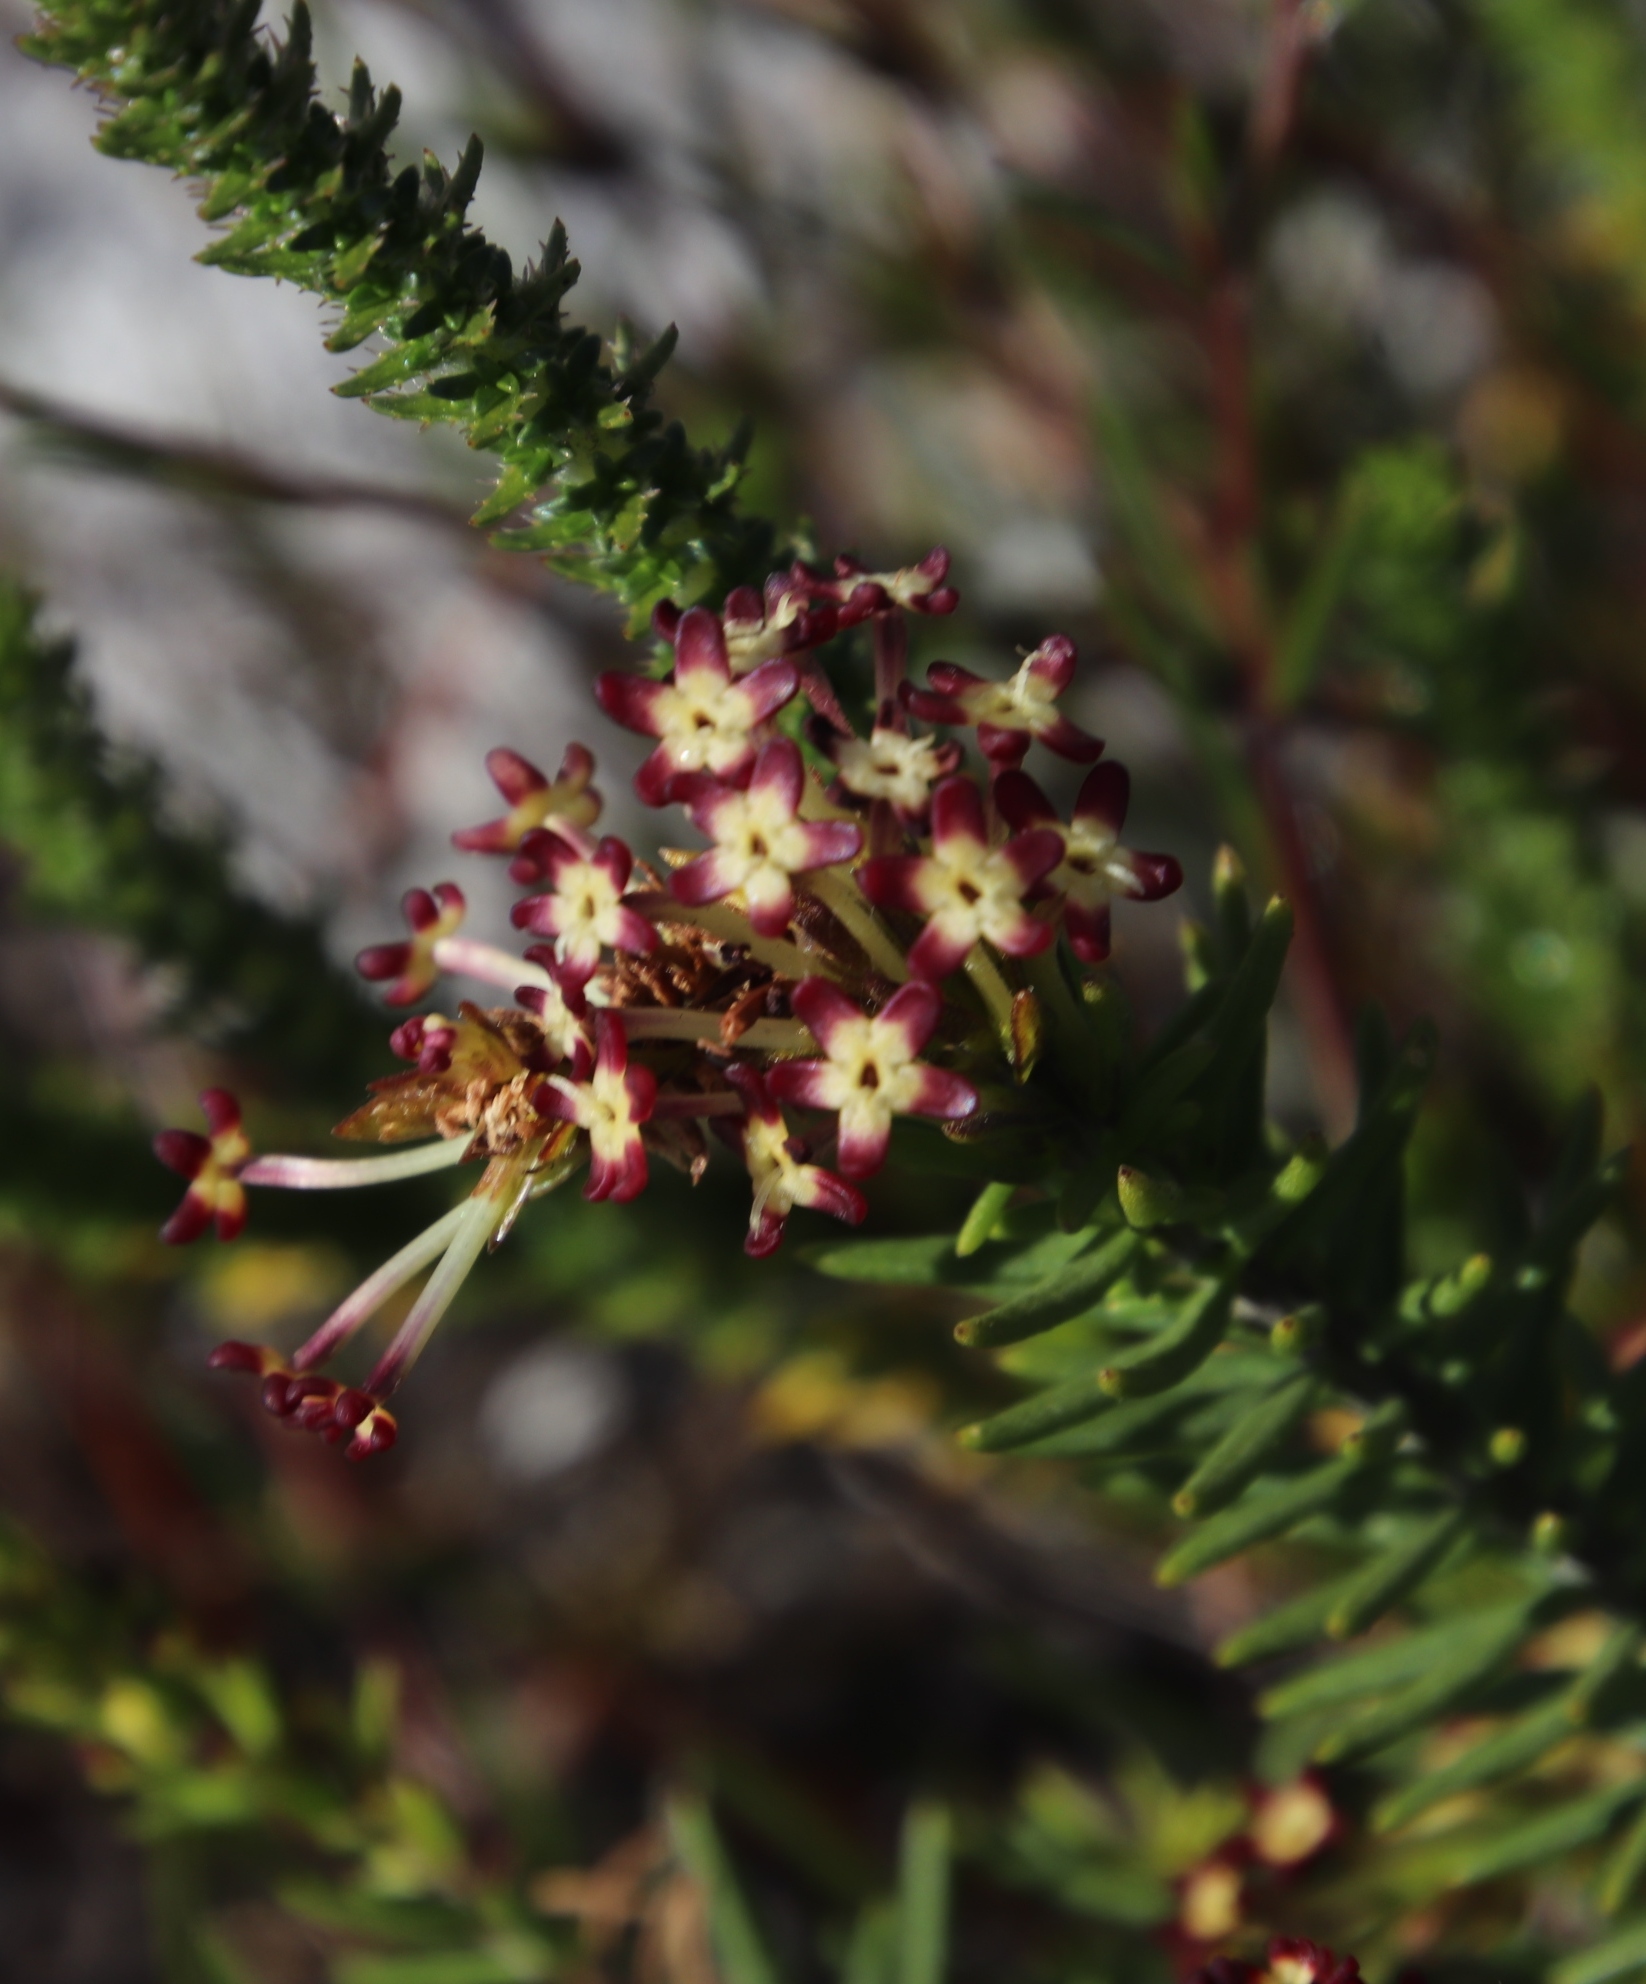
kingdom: Plantae
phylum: Tracheophyta
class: Magnoliopsida
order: Lamiales
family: Scrophulariaceae
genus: Microdon
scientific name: Microdon dubius
